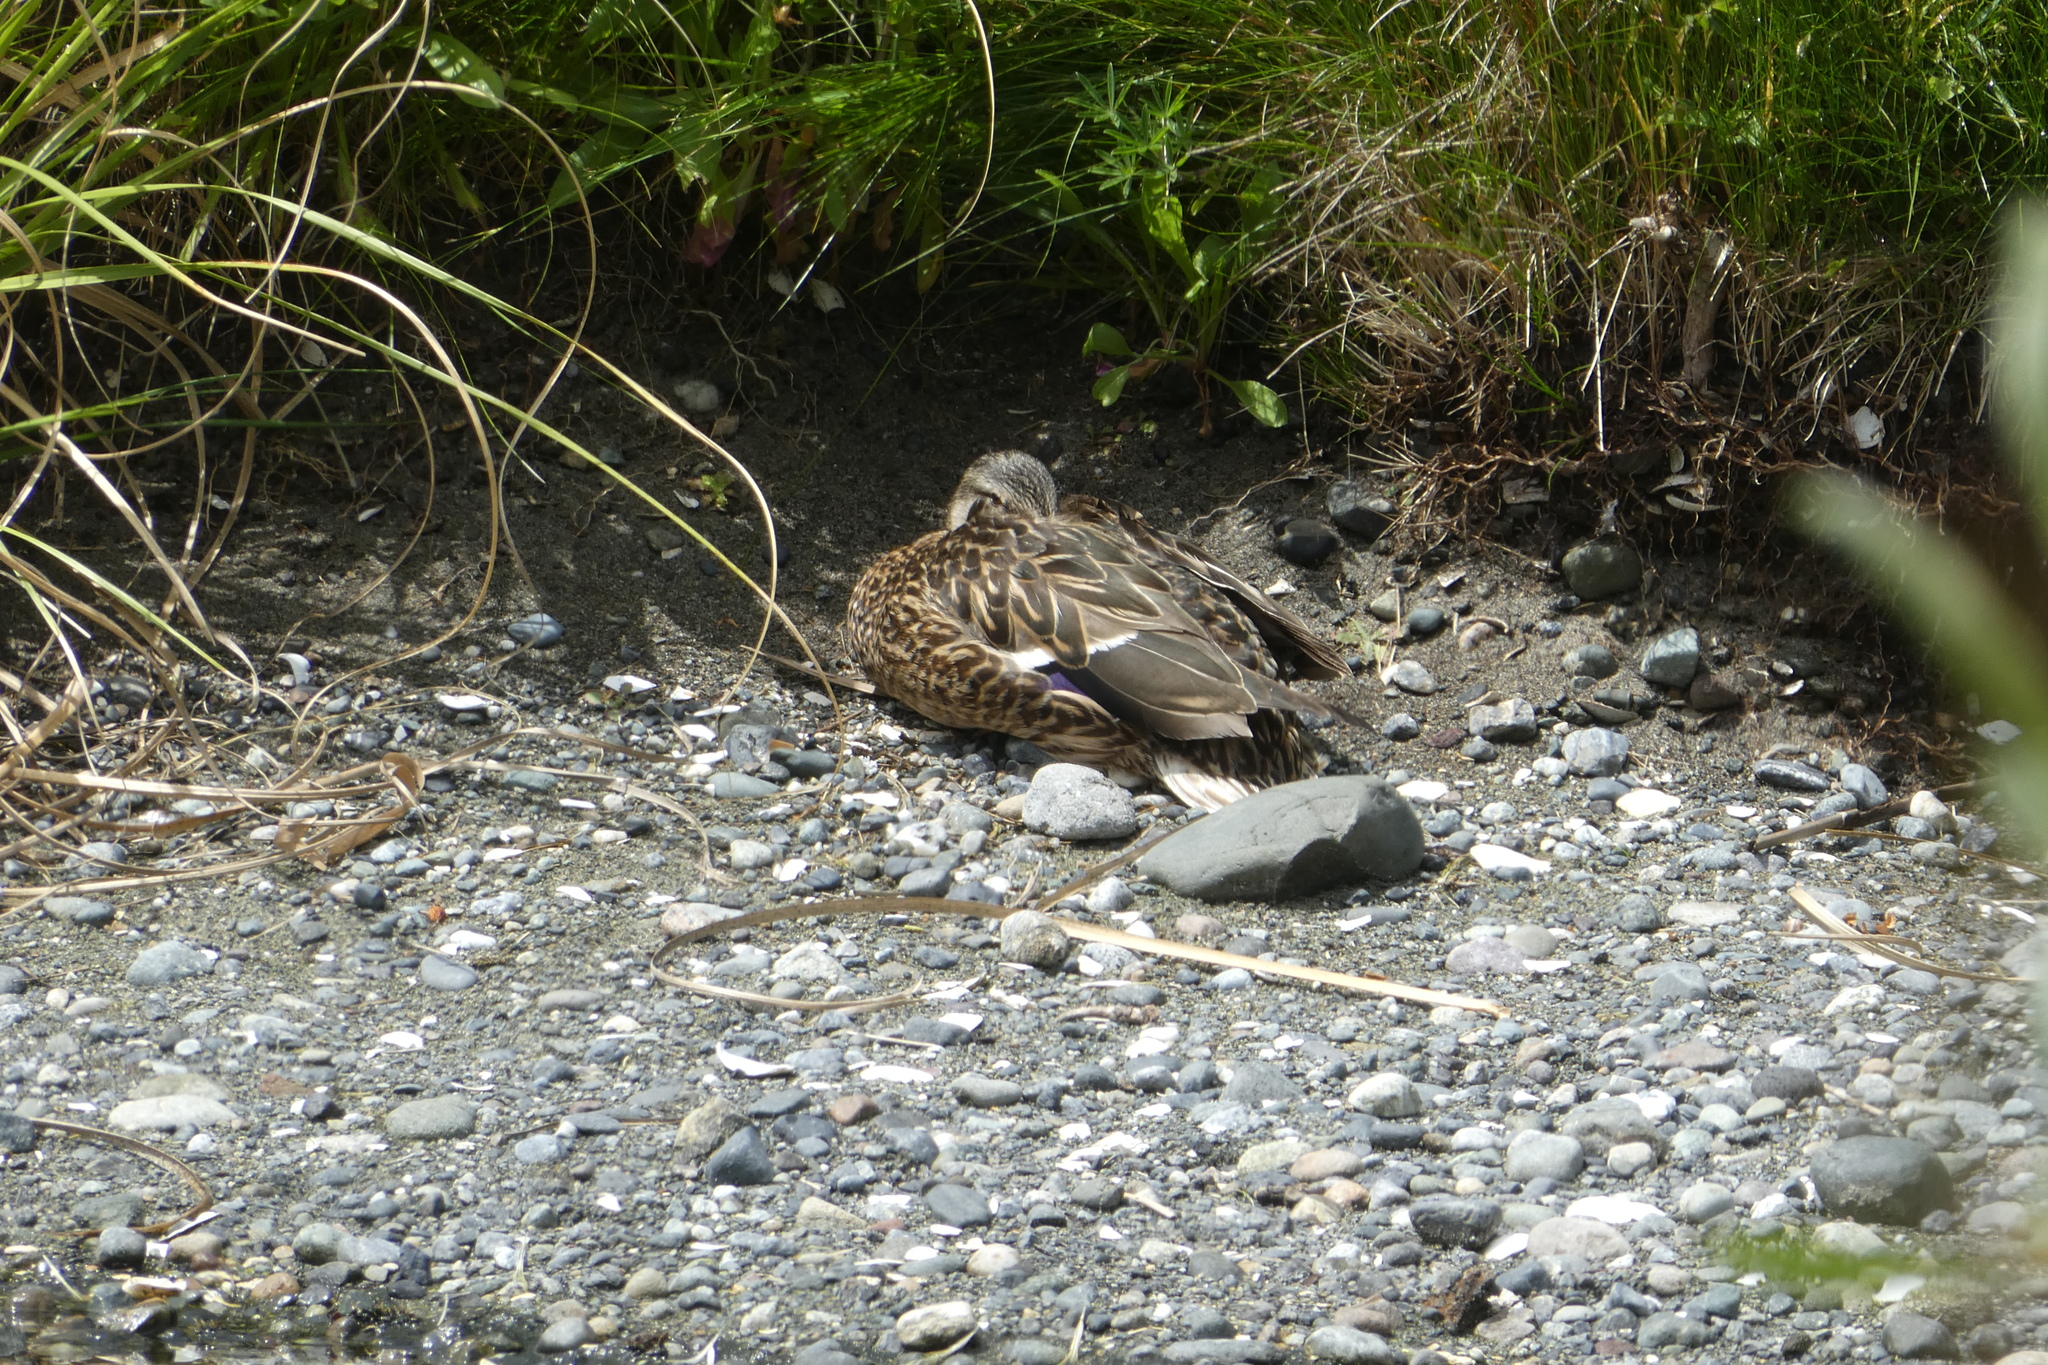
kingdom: Animalia
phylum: Chordata
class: Aves
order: Anseriformes
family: Anatidae
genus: Anas
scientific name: Anas platyrhynchos
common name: Mallard
